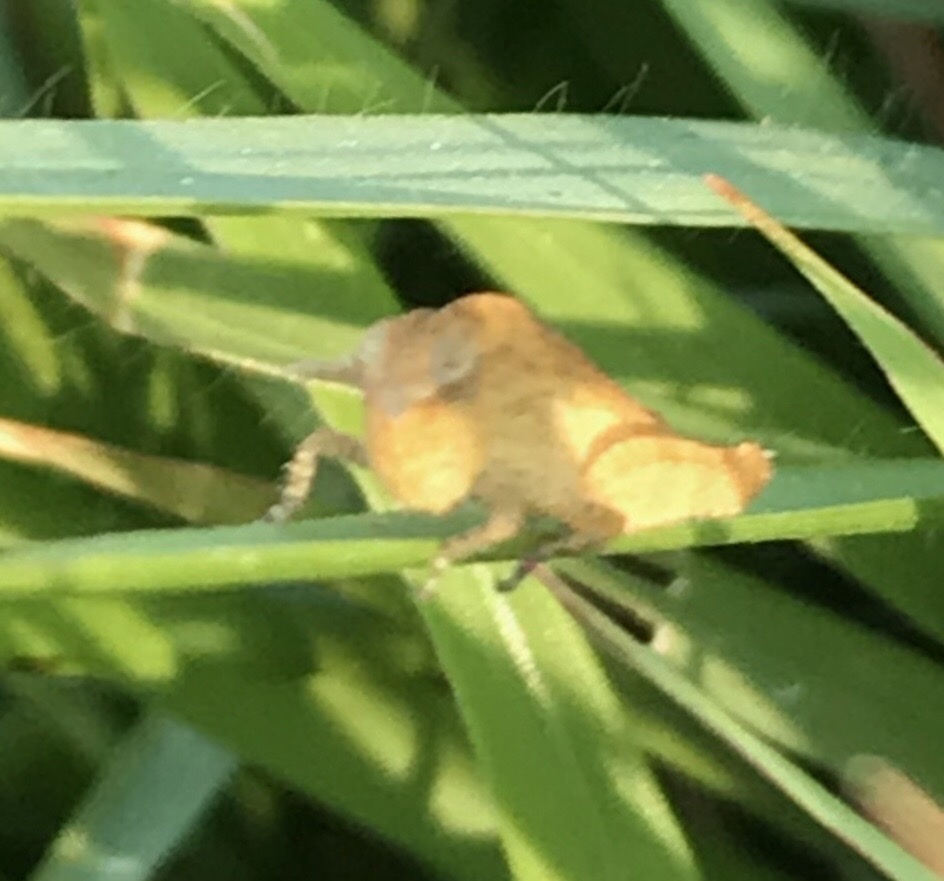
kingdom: Animalia
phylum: Arthropoda
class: Insecta
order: Orthoptera
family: Acrididae
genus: Chortophaga
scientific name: Chortophaga viridifasciata
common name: Green-striped grasshopper
